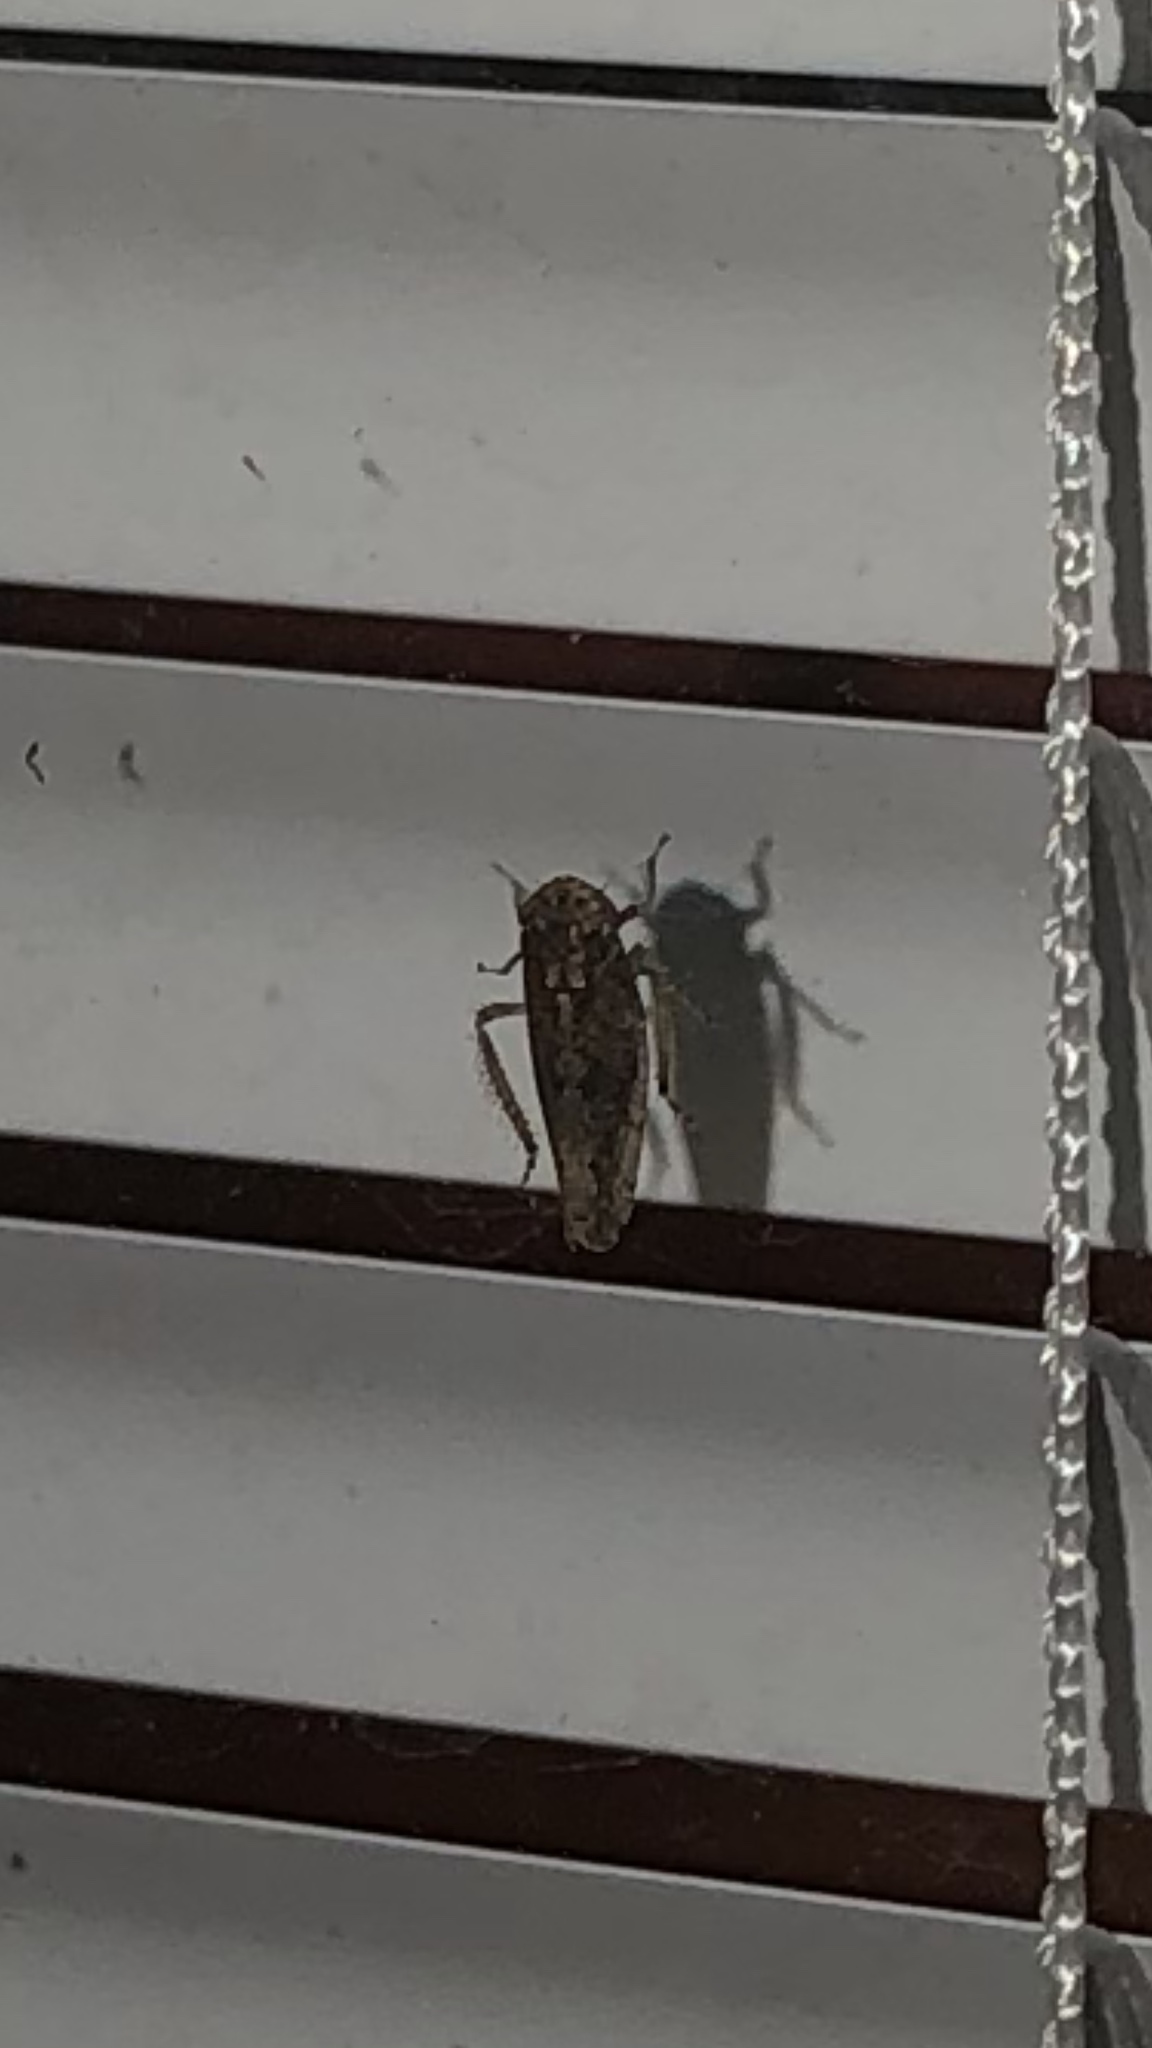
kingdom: Animalia
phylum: Arthropoda
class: Insecta
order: Hemiptera
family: Cicadellidae
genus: Paraphlepsius
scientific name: Paraphlepsius
